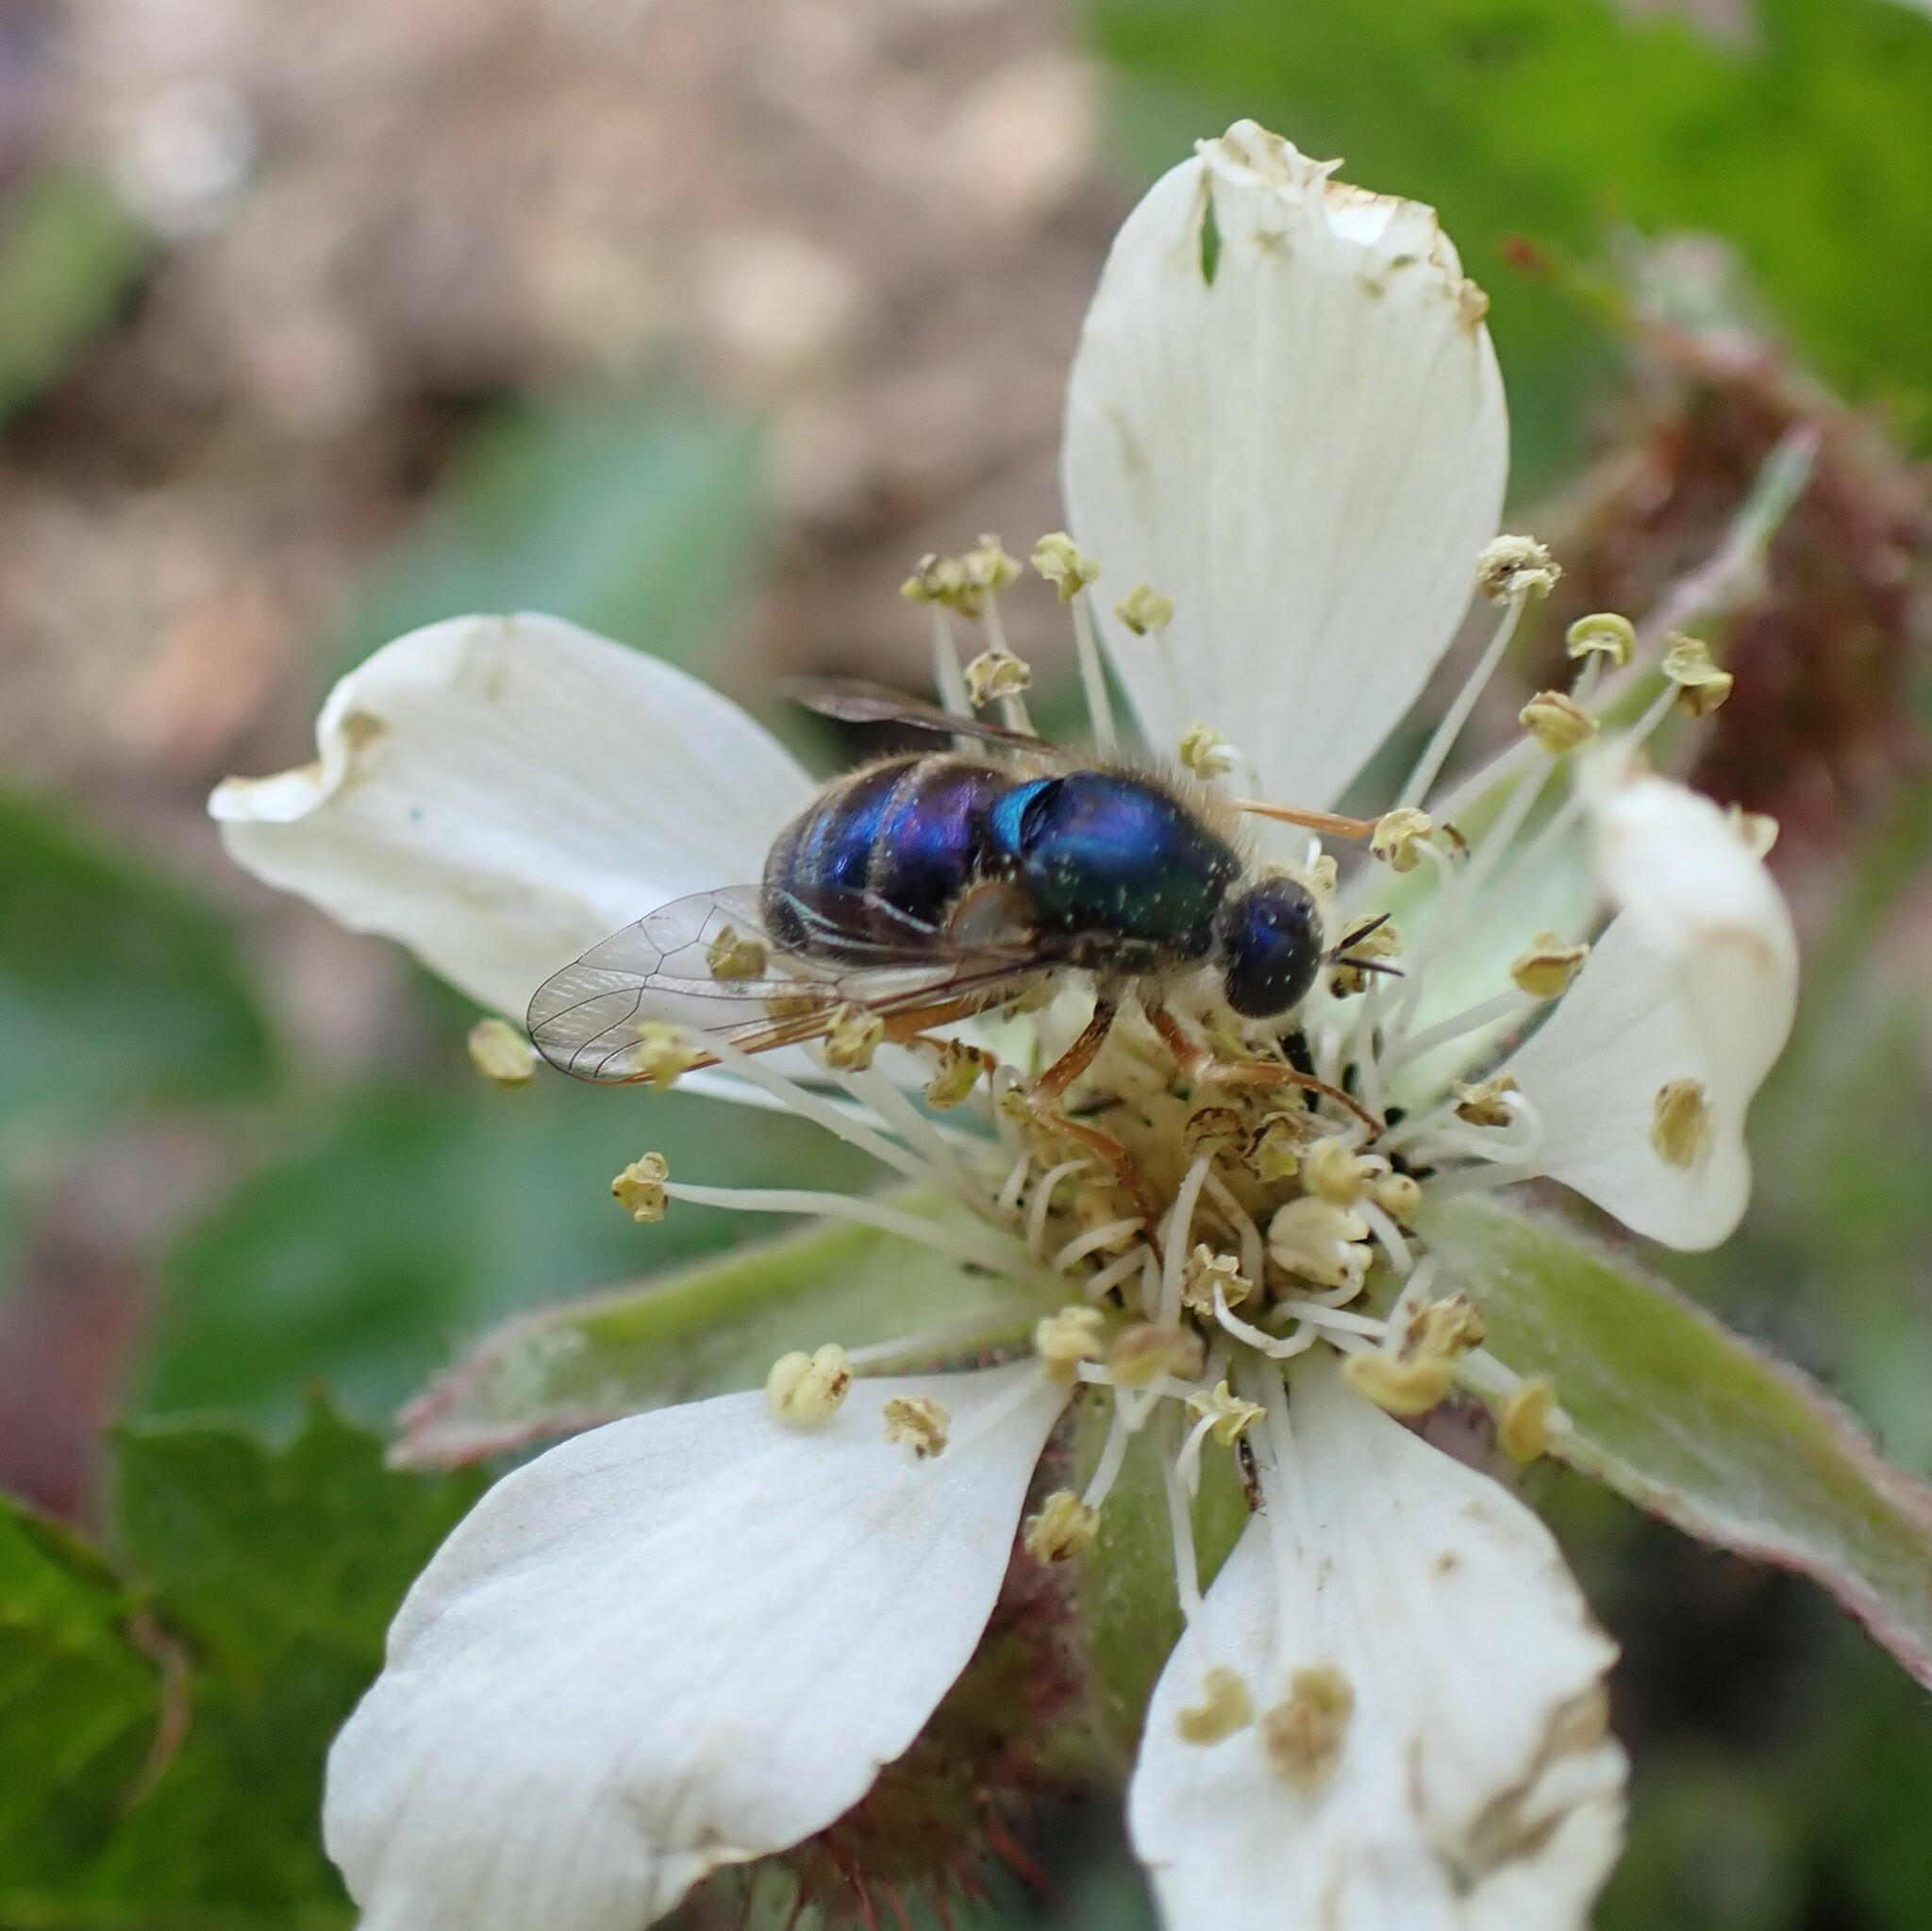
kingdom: Animalia
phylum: Arthropoda
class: Insecta
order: Diptera
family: Acroceridae
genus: Eulonchus
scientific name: Eulonchus sapphirinus
